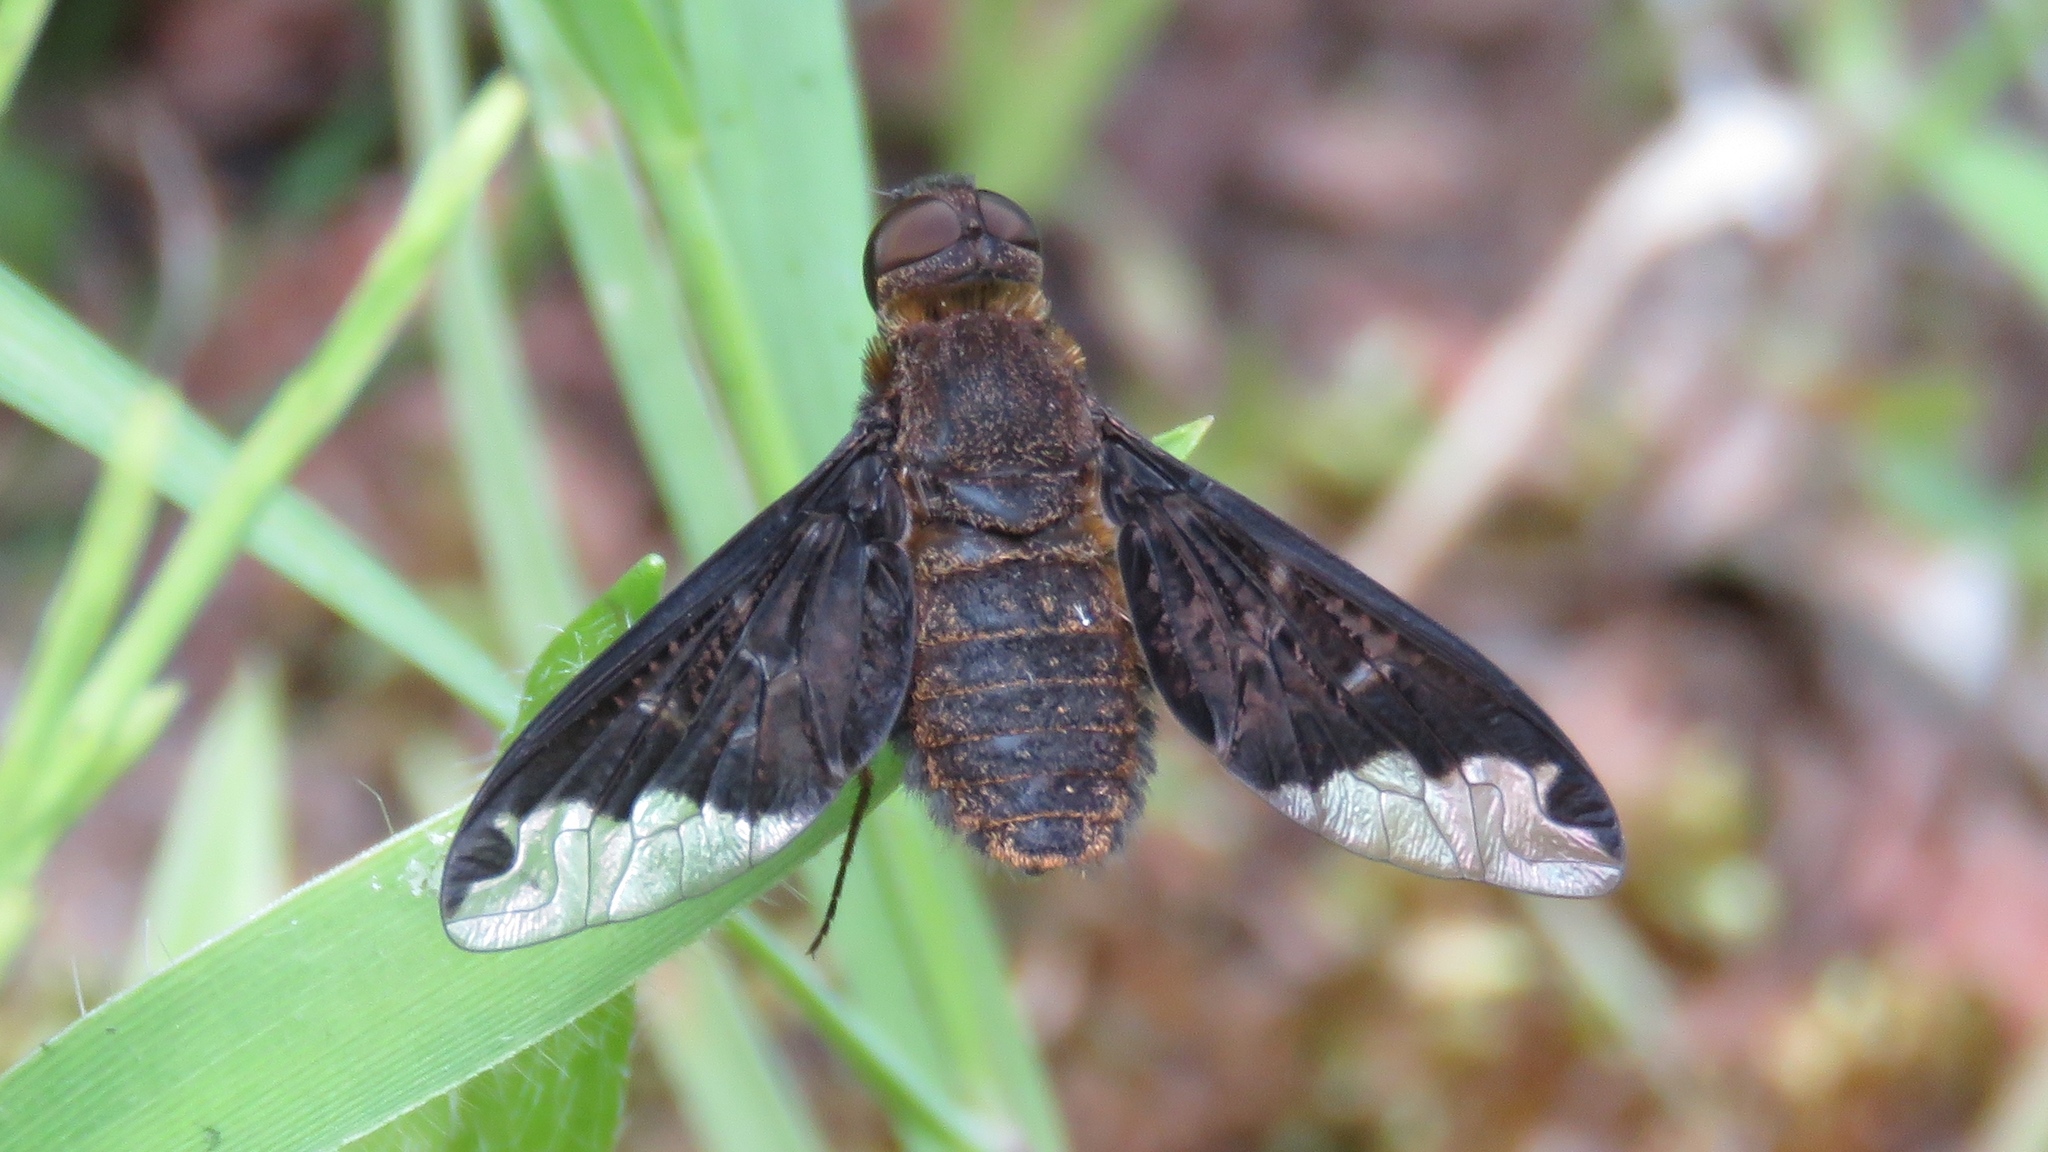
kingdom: Animalia
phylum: Arthropoda
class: Insecta
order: Diptera
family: Bombyliidae
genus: Hemipenthes
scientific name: Hemipenthes sinuosus
